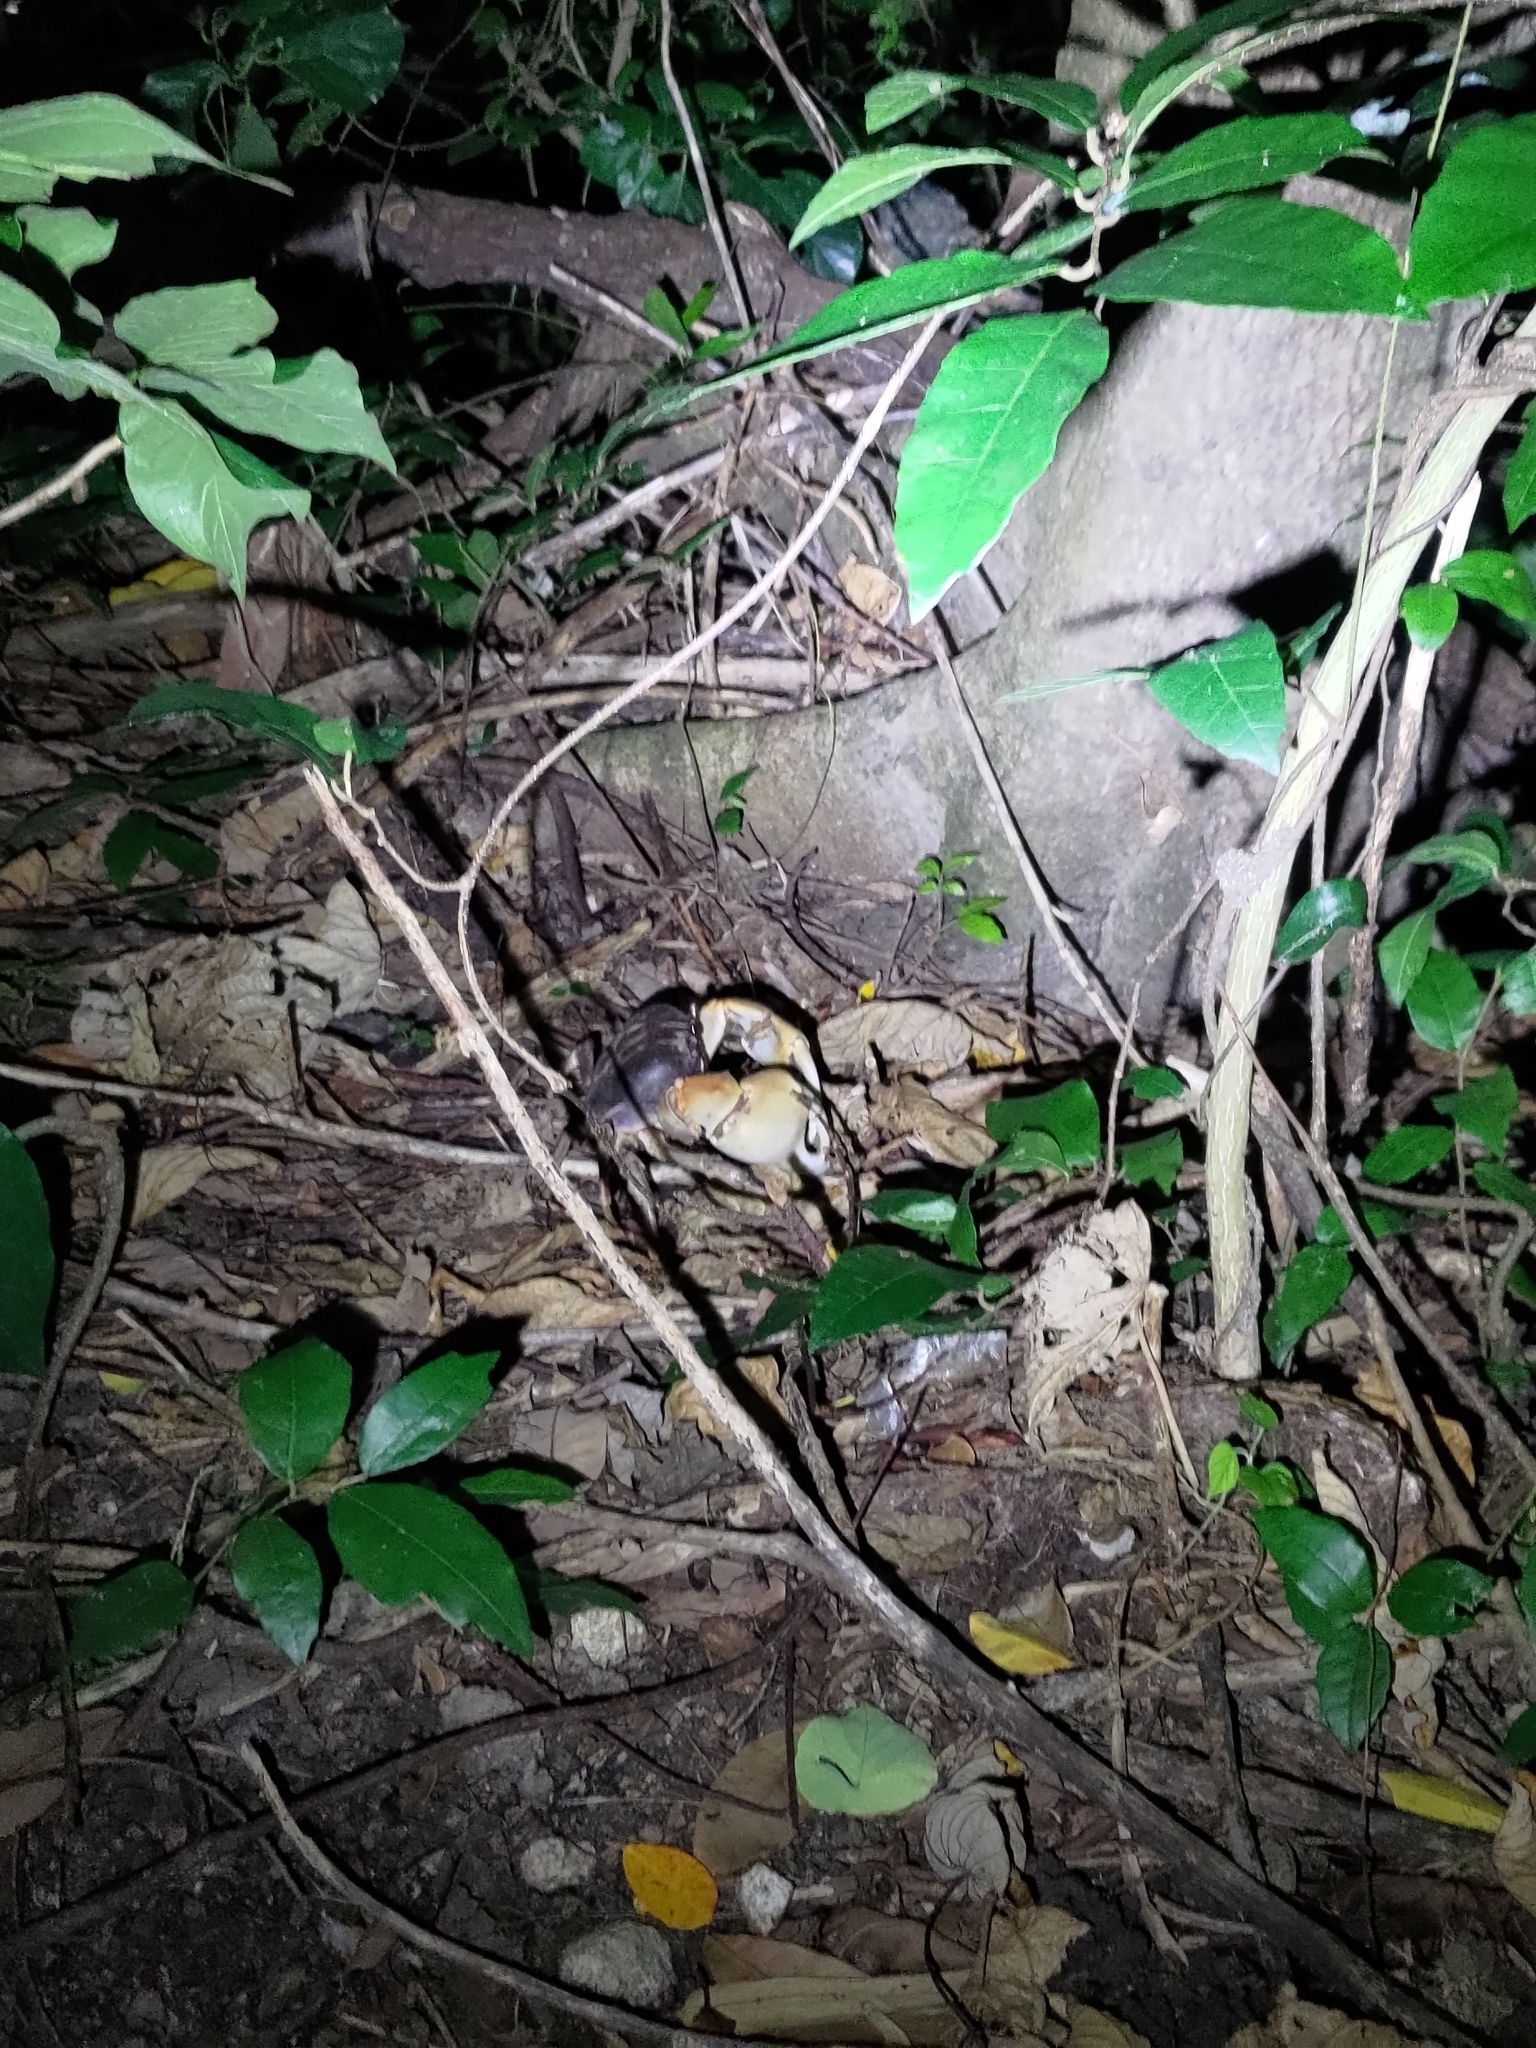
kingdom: Animalia
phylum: Arthropoda
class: Malacostraca
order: Decapoda
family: Gecarcinidae
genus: Tuerkayana
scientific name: Tuerkayana hirtipes
